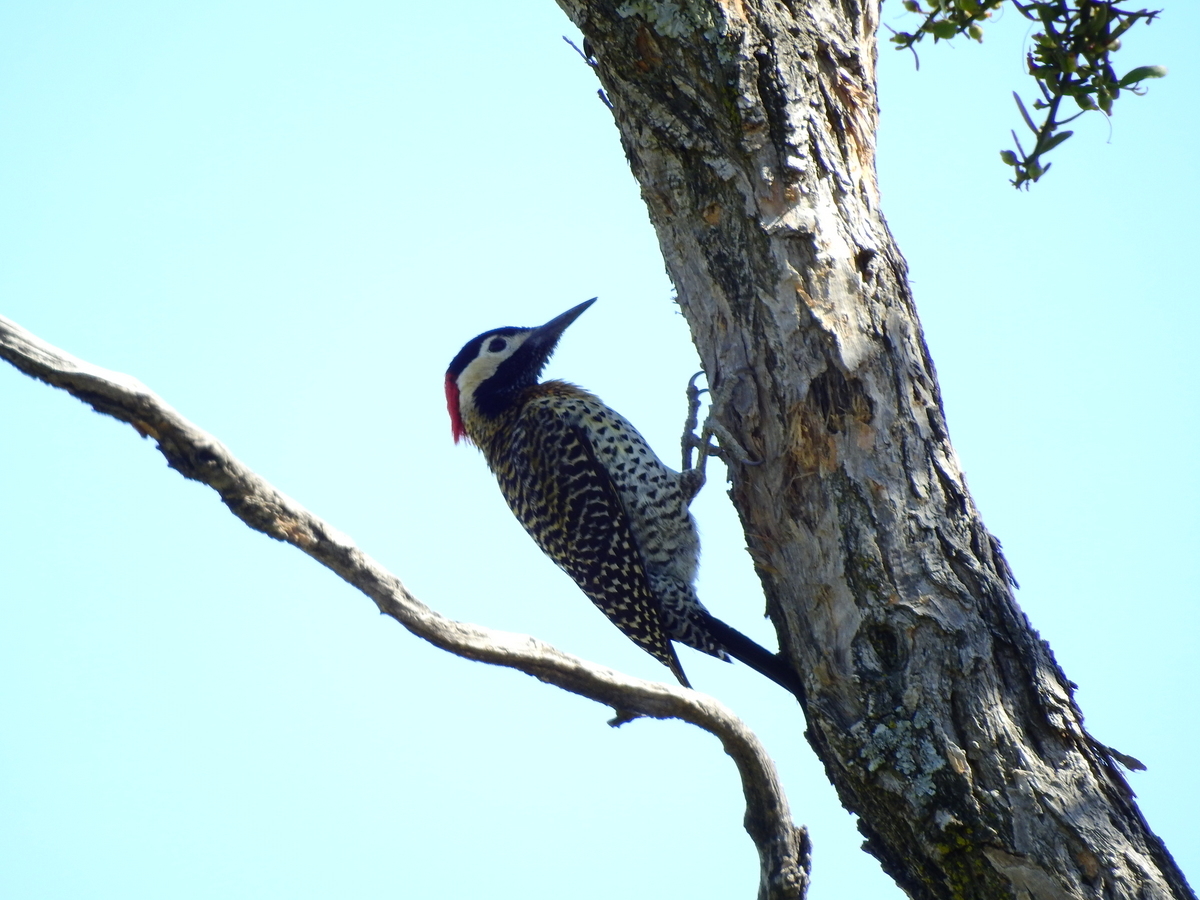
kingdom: Animalia
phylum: Chordata
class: Aves
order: Piciformes
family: Picidae
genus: Colaptes
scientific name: Colaptes melanochloros
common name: Green-barred woodpecker
